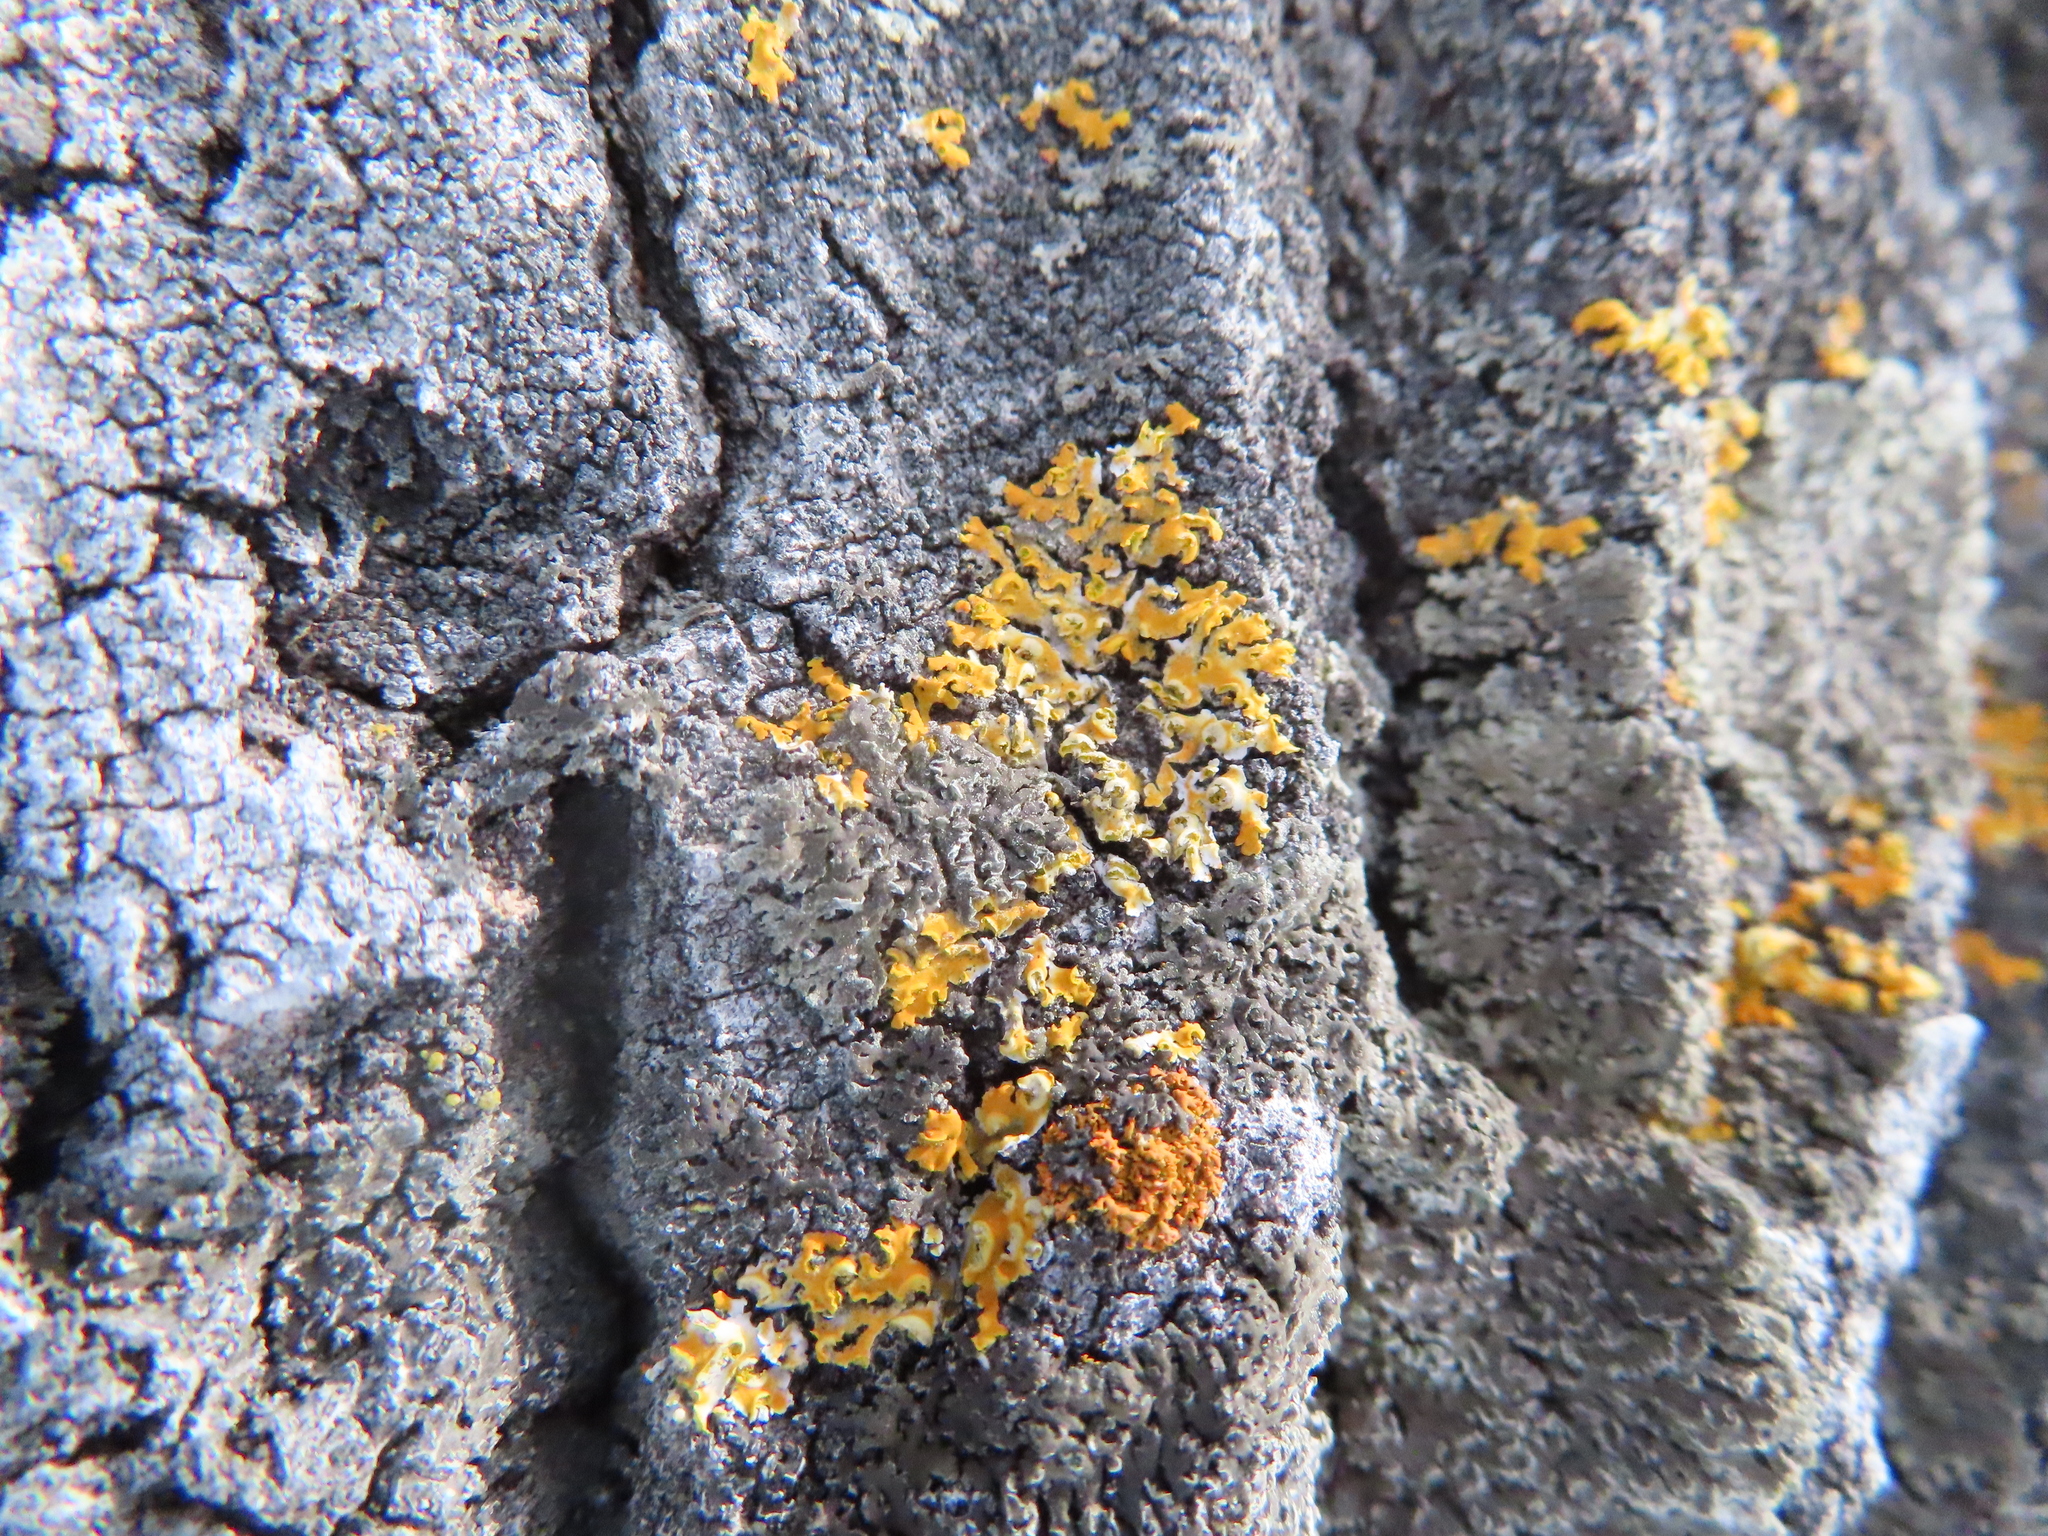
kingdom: Fungi
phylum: Ascomycota
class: Lecanoromycetes
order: Teloschistales
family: Teloschistaceae
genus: Oxneria
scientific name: Oxneria fallax
